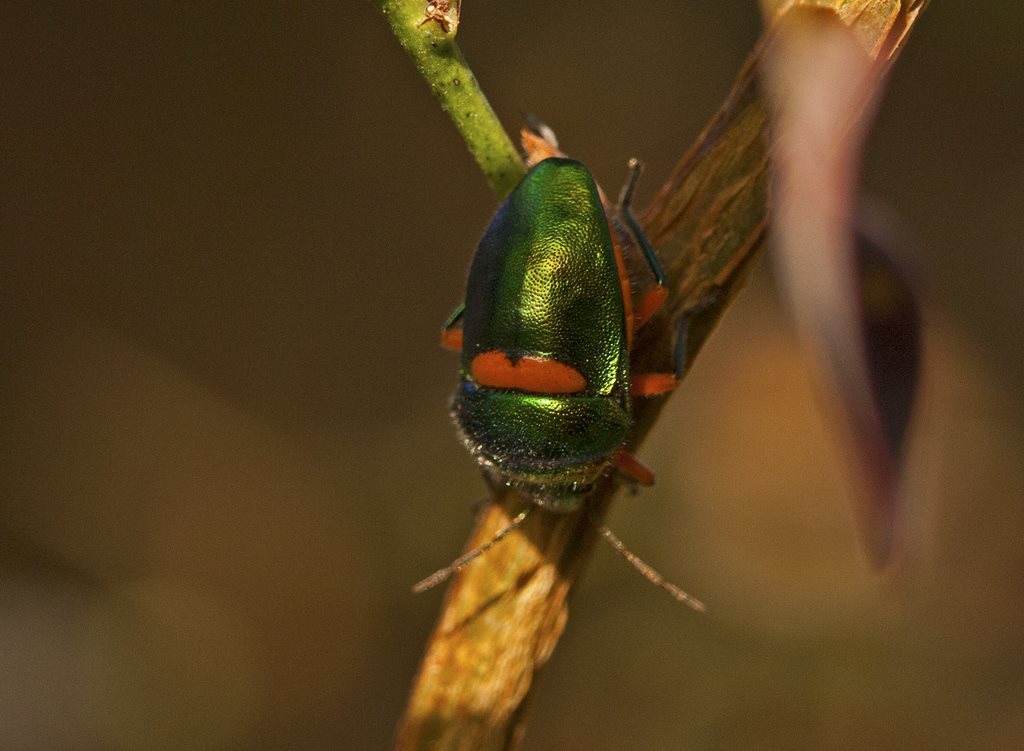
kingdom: Animalia
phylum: Arthropoda
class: Insecta
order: Hemiptera
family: Scutelleridae
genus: Lampromicra
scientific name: Lampromicra senator
